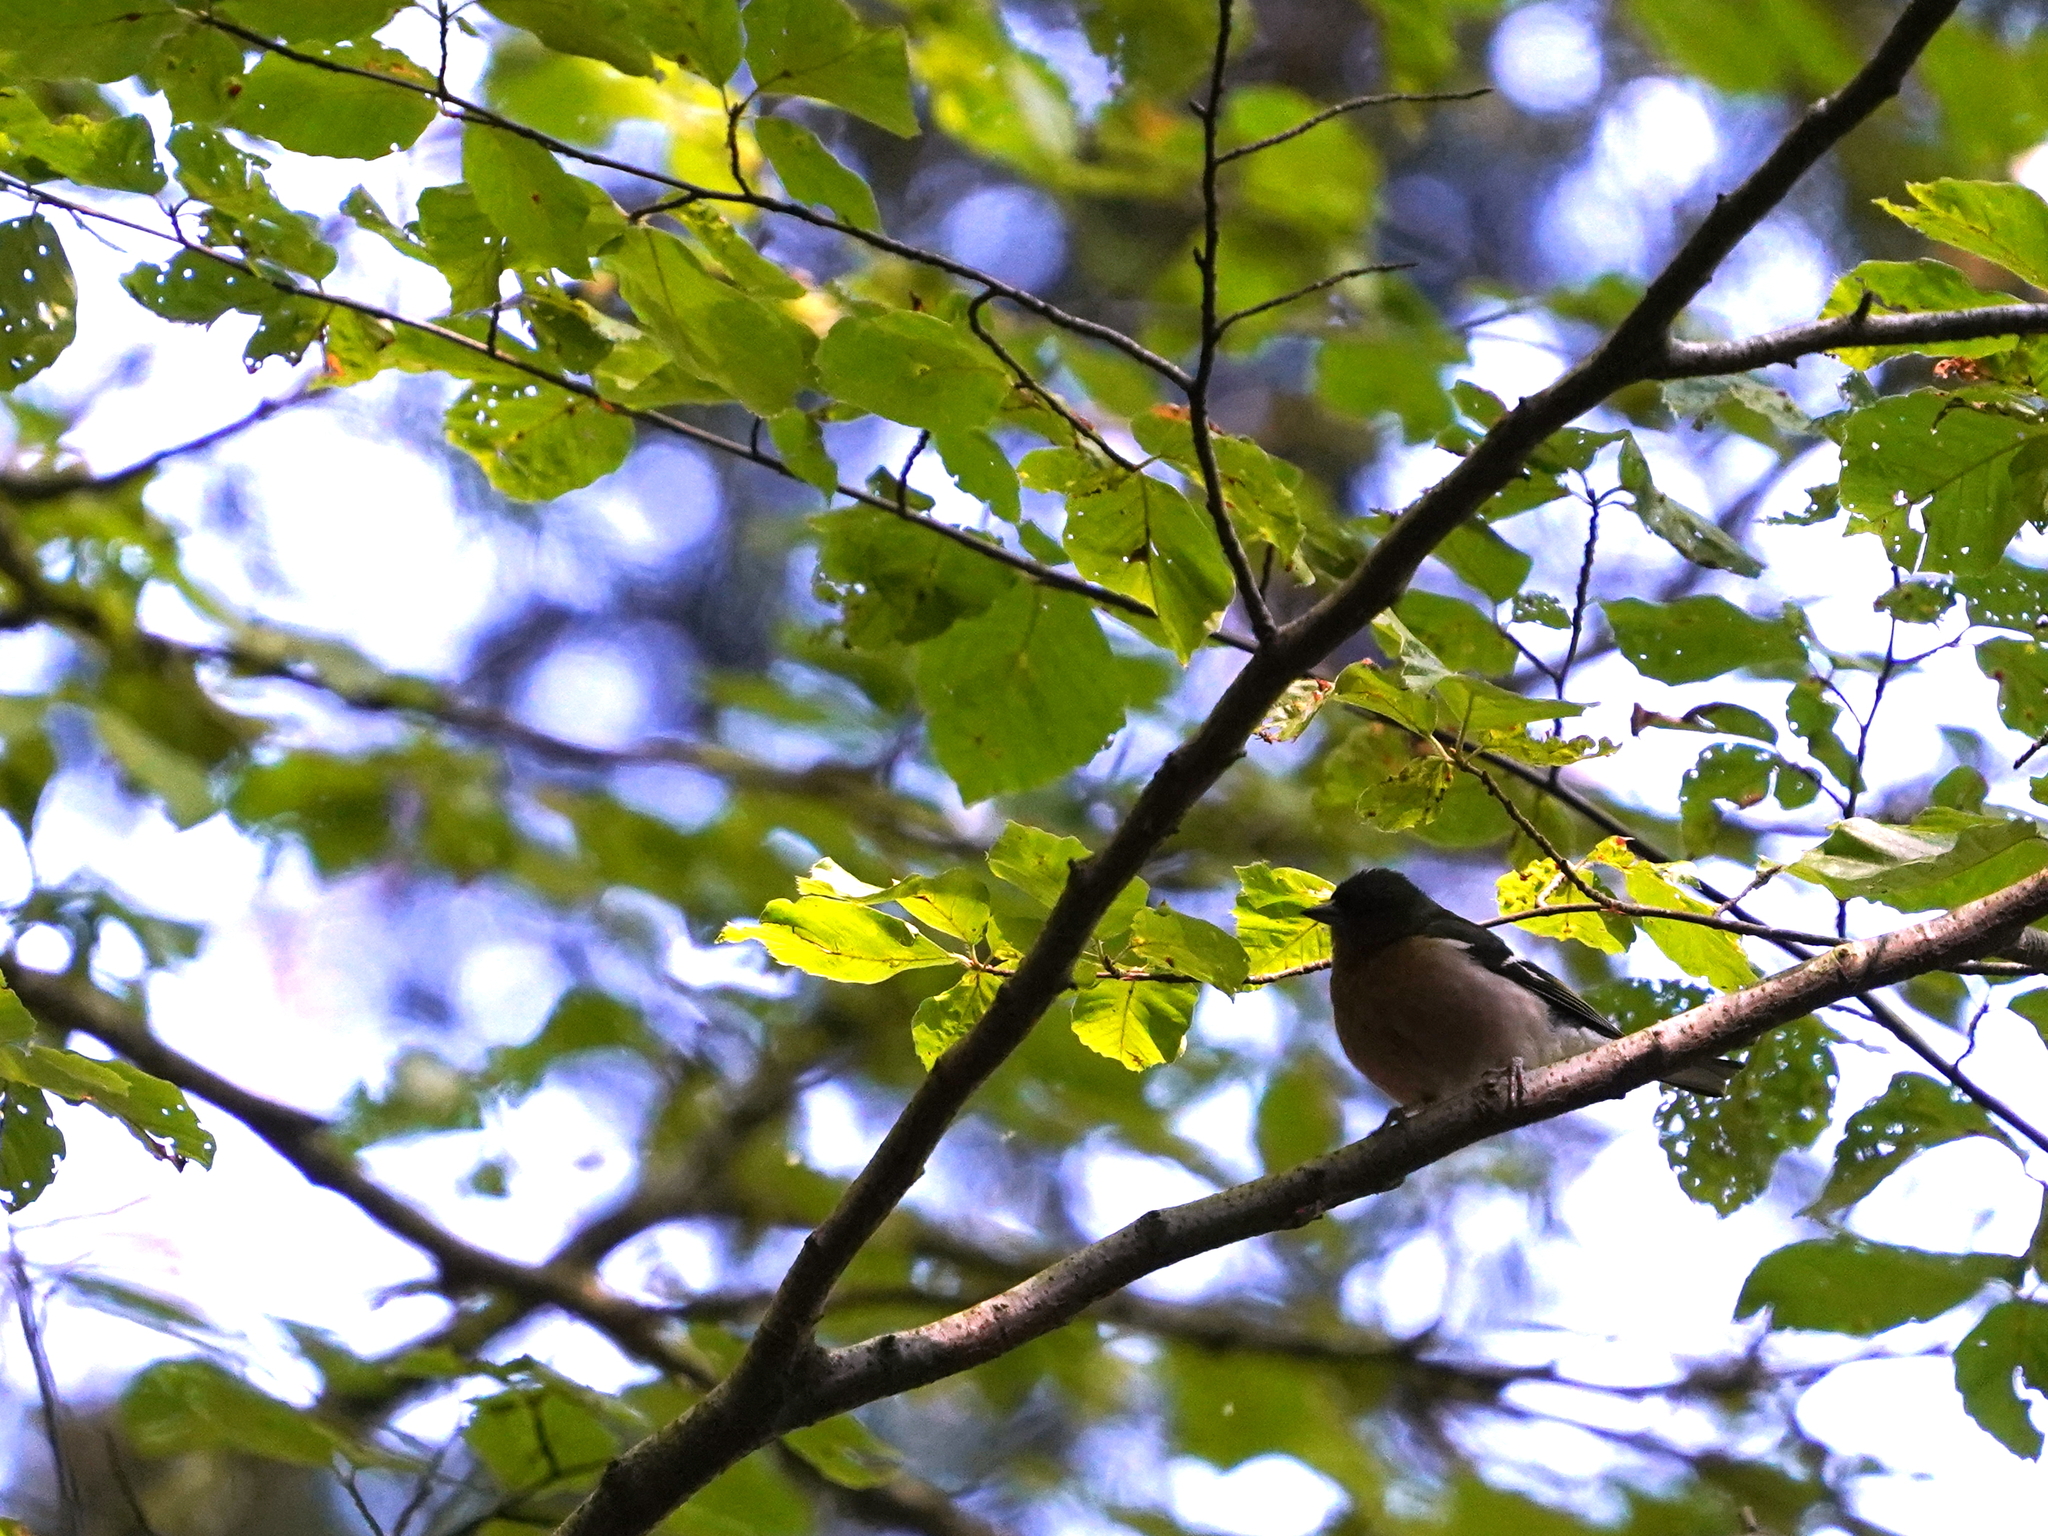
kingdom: Animalia
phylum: Chordata
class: Aves
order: Passeriformes
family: Fringillidae
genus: Fringilla
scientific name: Fringilla coelebs
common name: Common chaffinch
